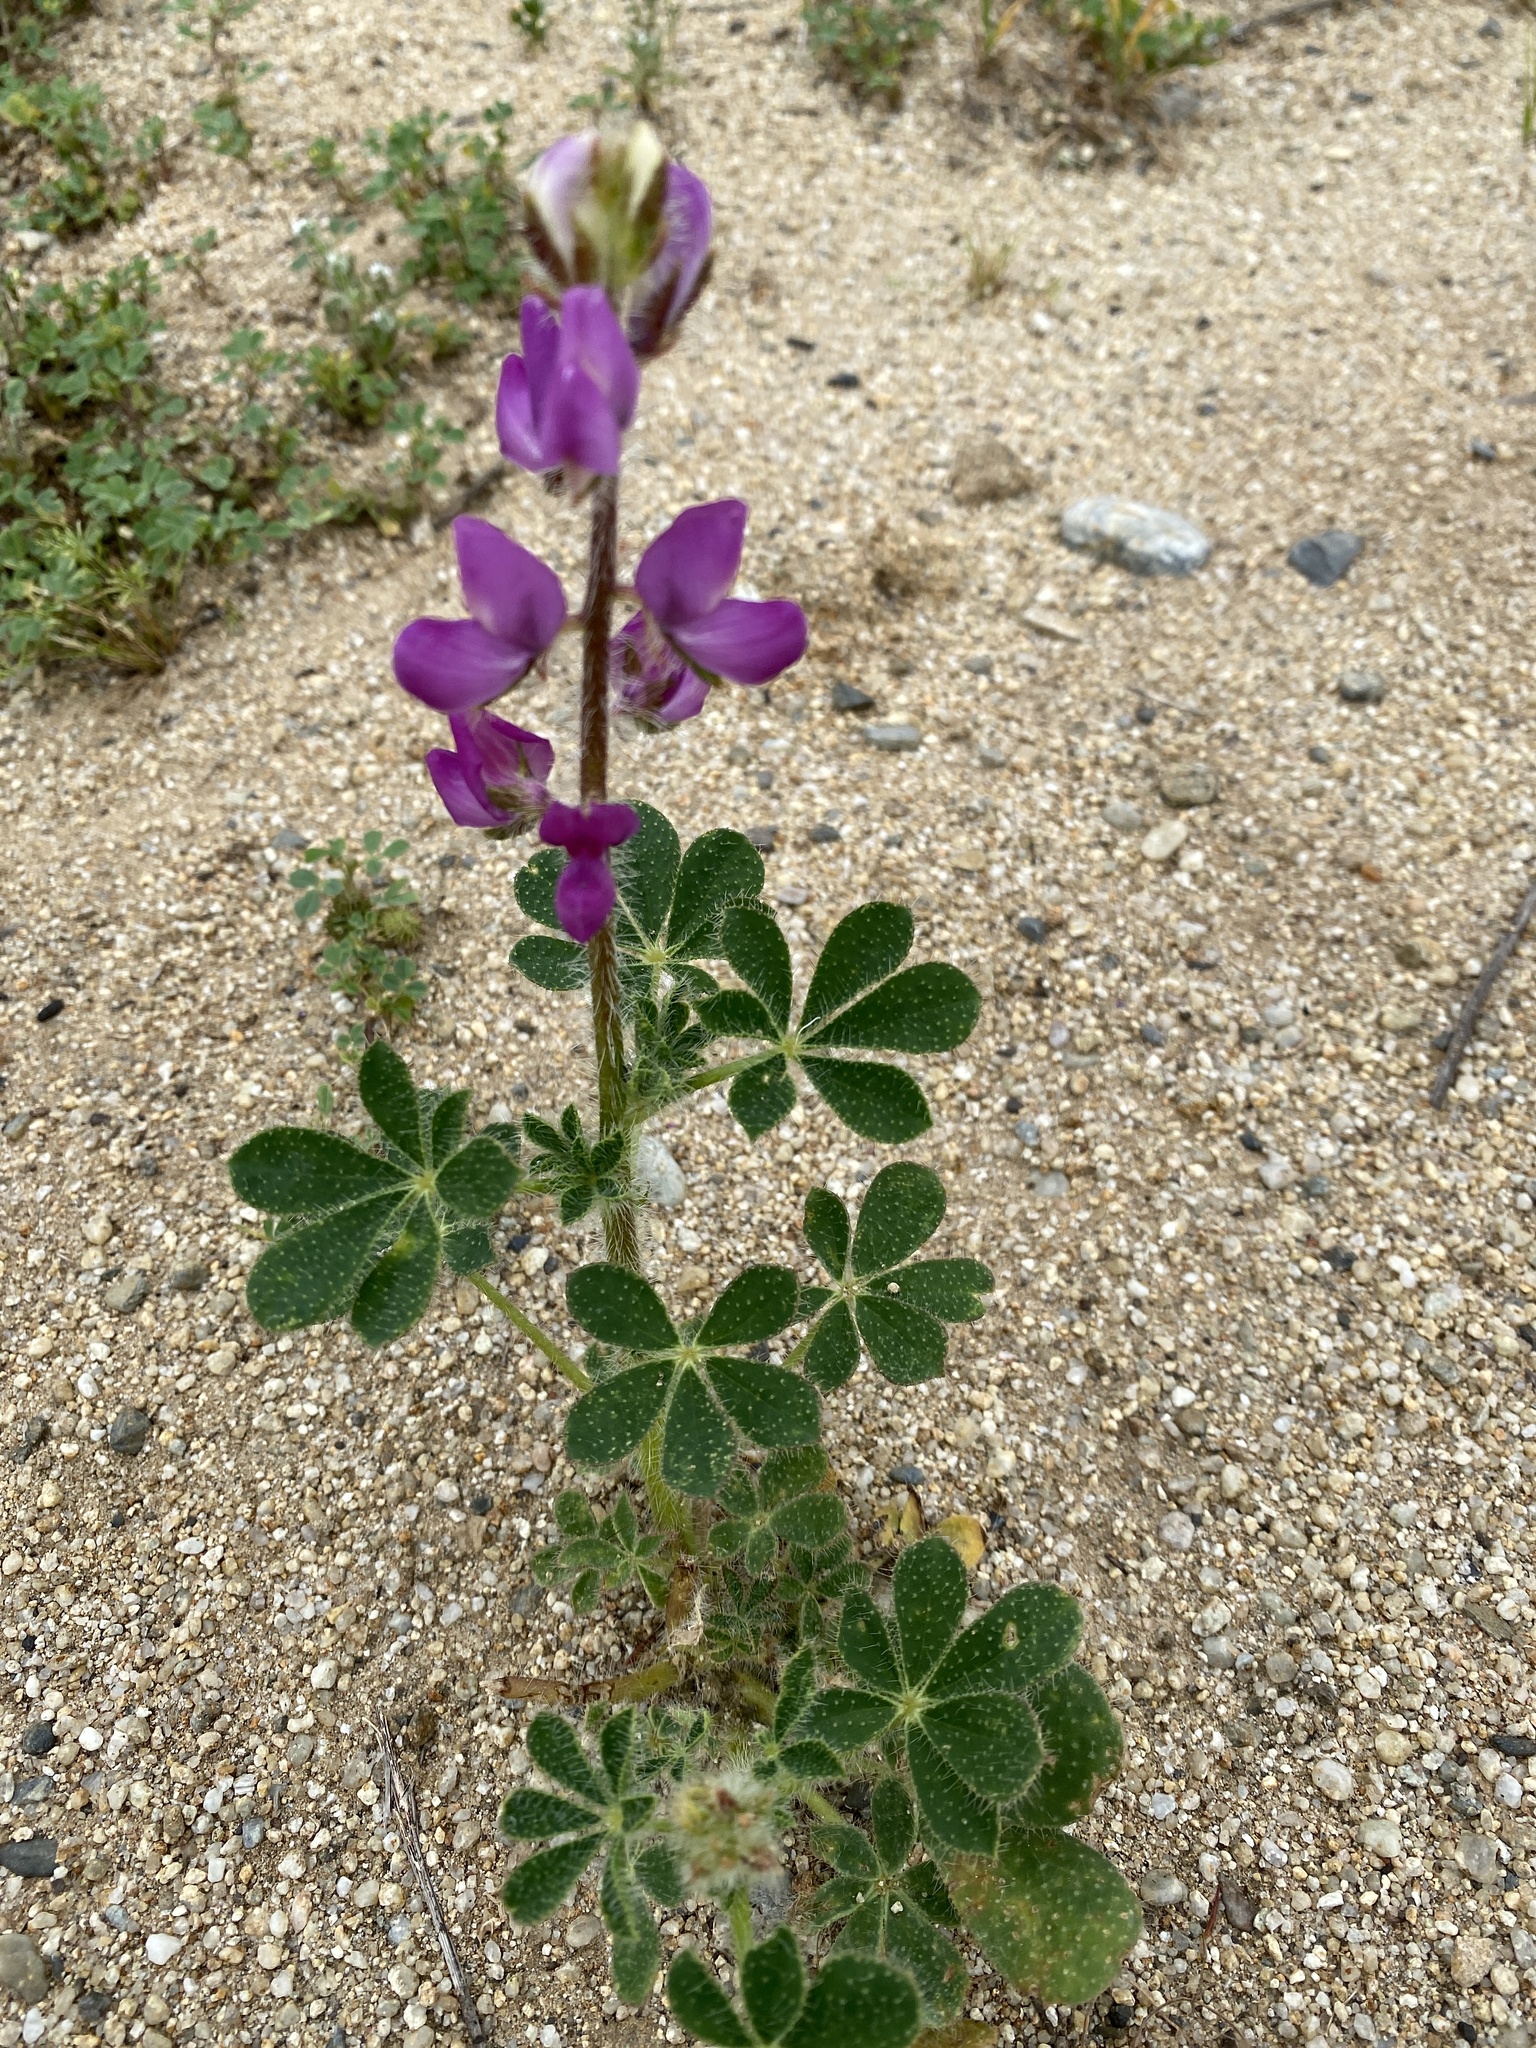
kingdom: Plantae
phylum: Tracheophyta
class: Magnoliopsida
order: Fabales
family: Fabaceae
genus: Lupinus
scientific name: Lupinus hirsutissimus
